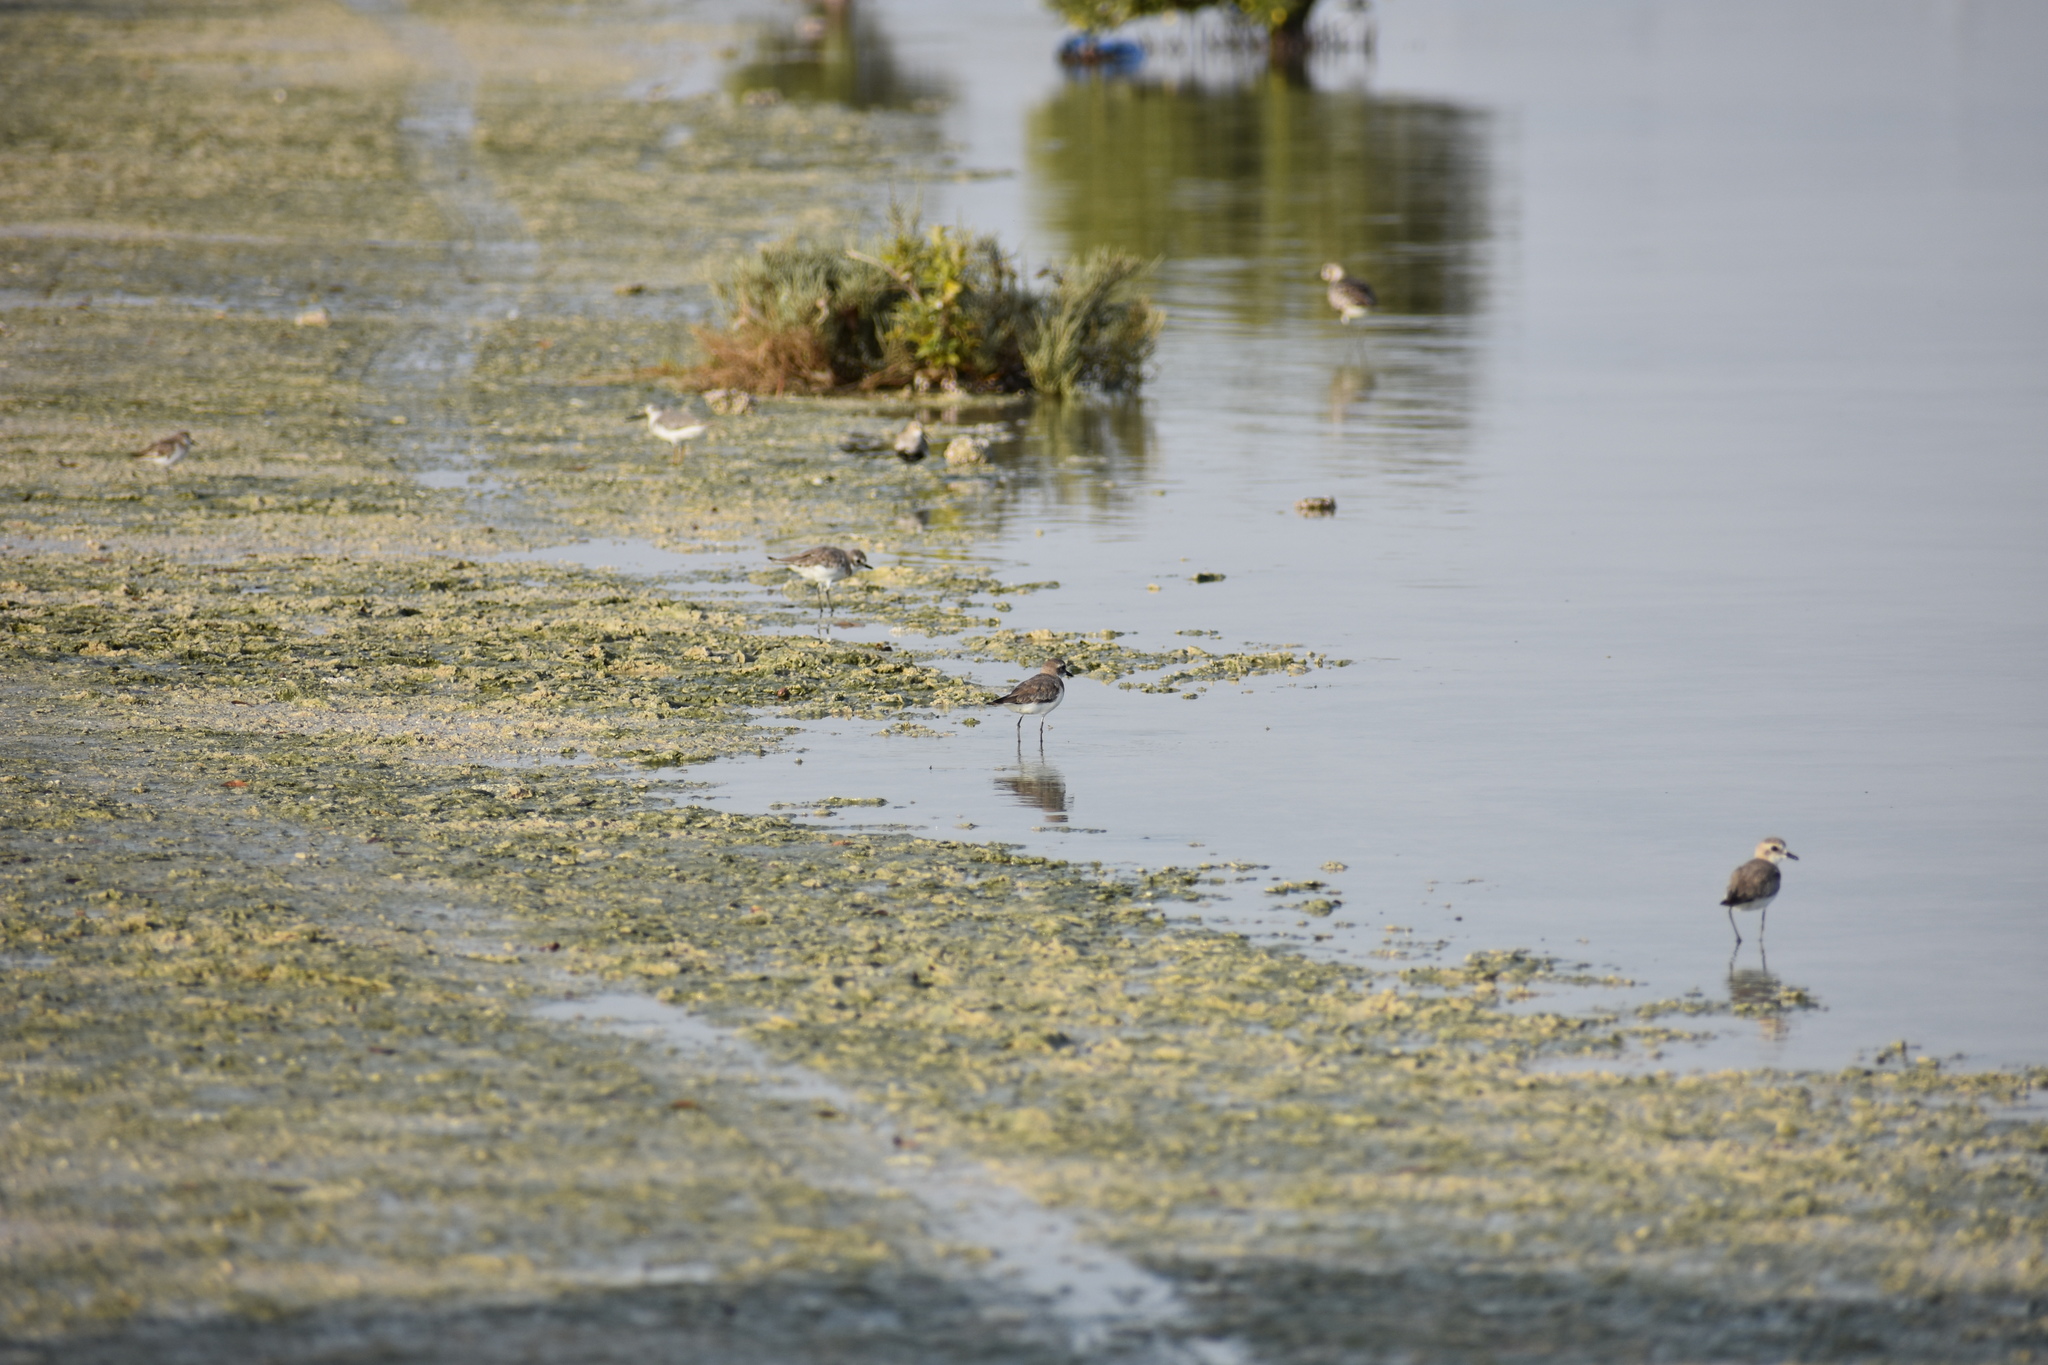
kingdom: Animalia
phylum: Chordata
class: Aves
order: Charadriiformes
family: Charadriidae
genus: Anarhynchus
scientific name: Anarhynchus
